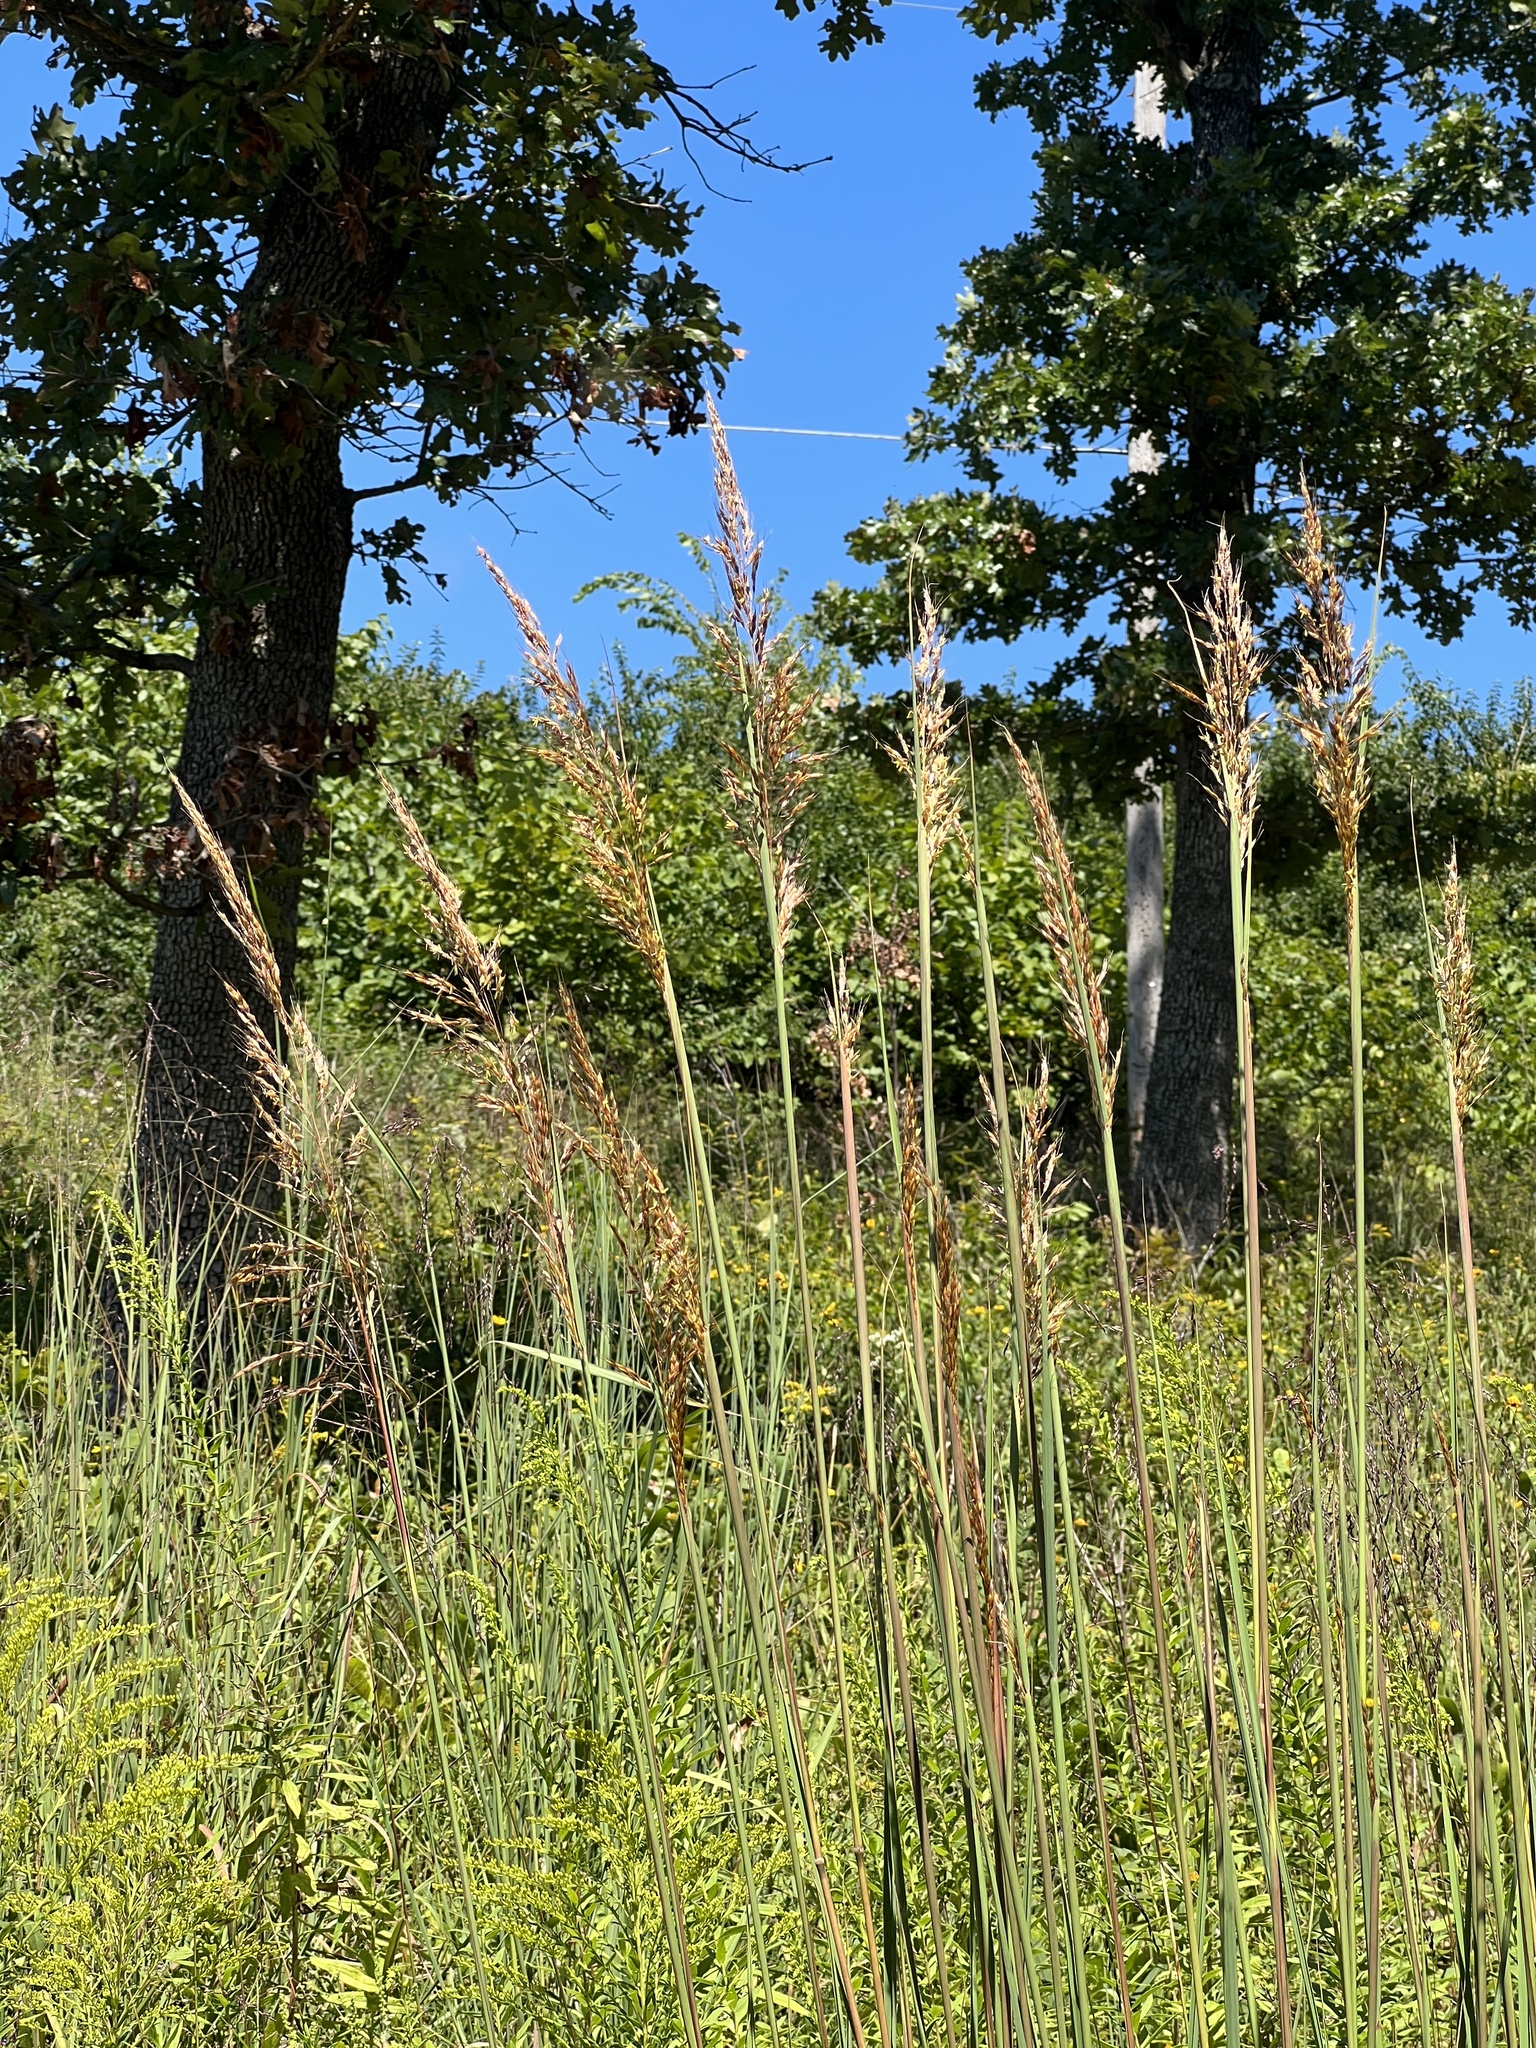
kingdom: Plantae
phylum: Tracheophyta
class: Liliopsida
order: Poales
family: Poaceae
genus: Sorghastrum
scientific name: Sorghastrum nutans
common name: Indian grass
